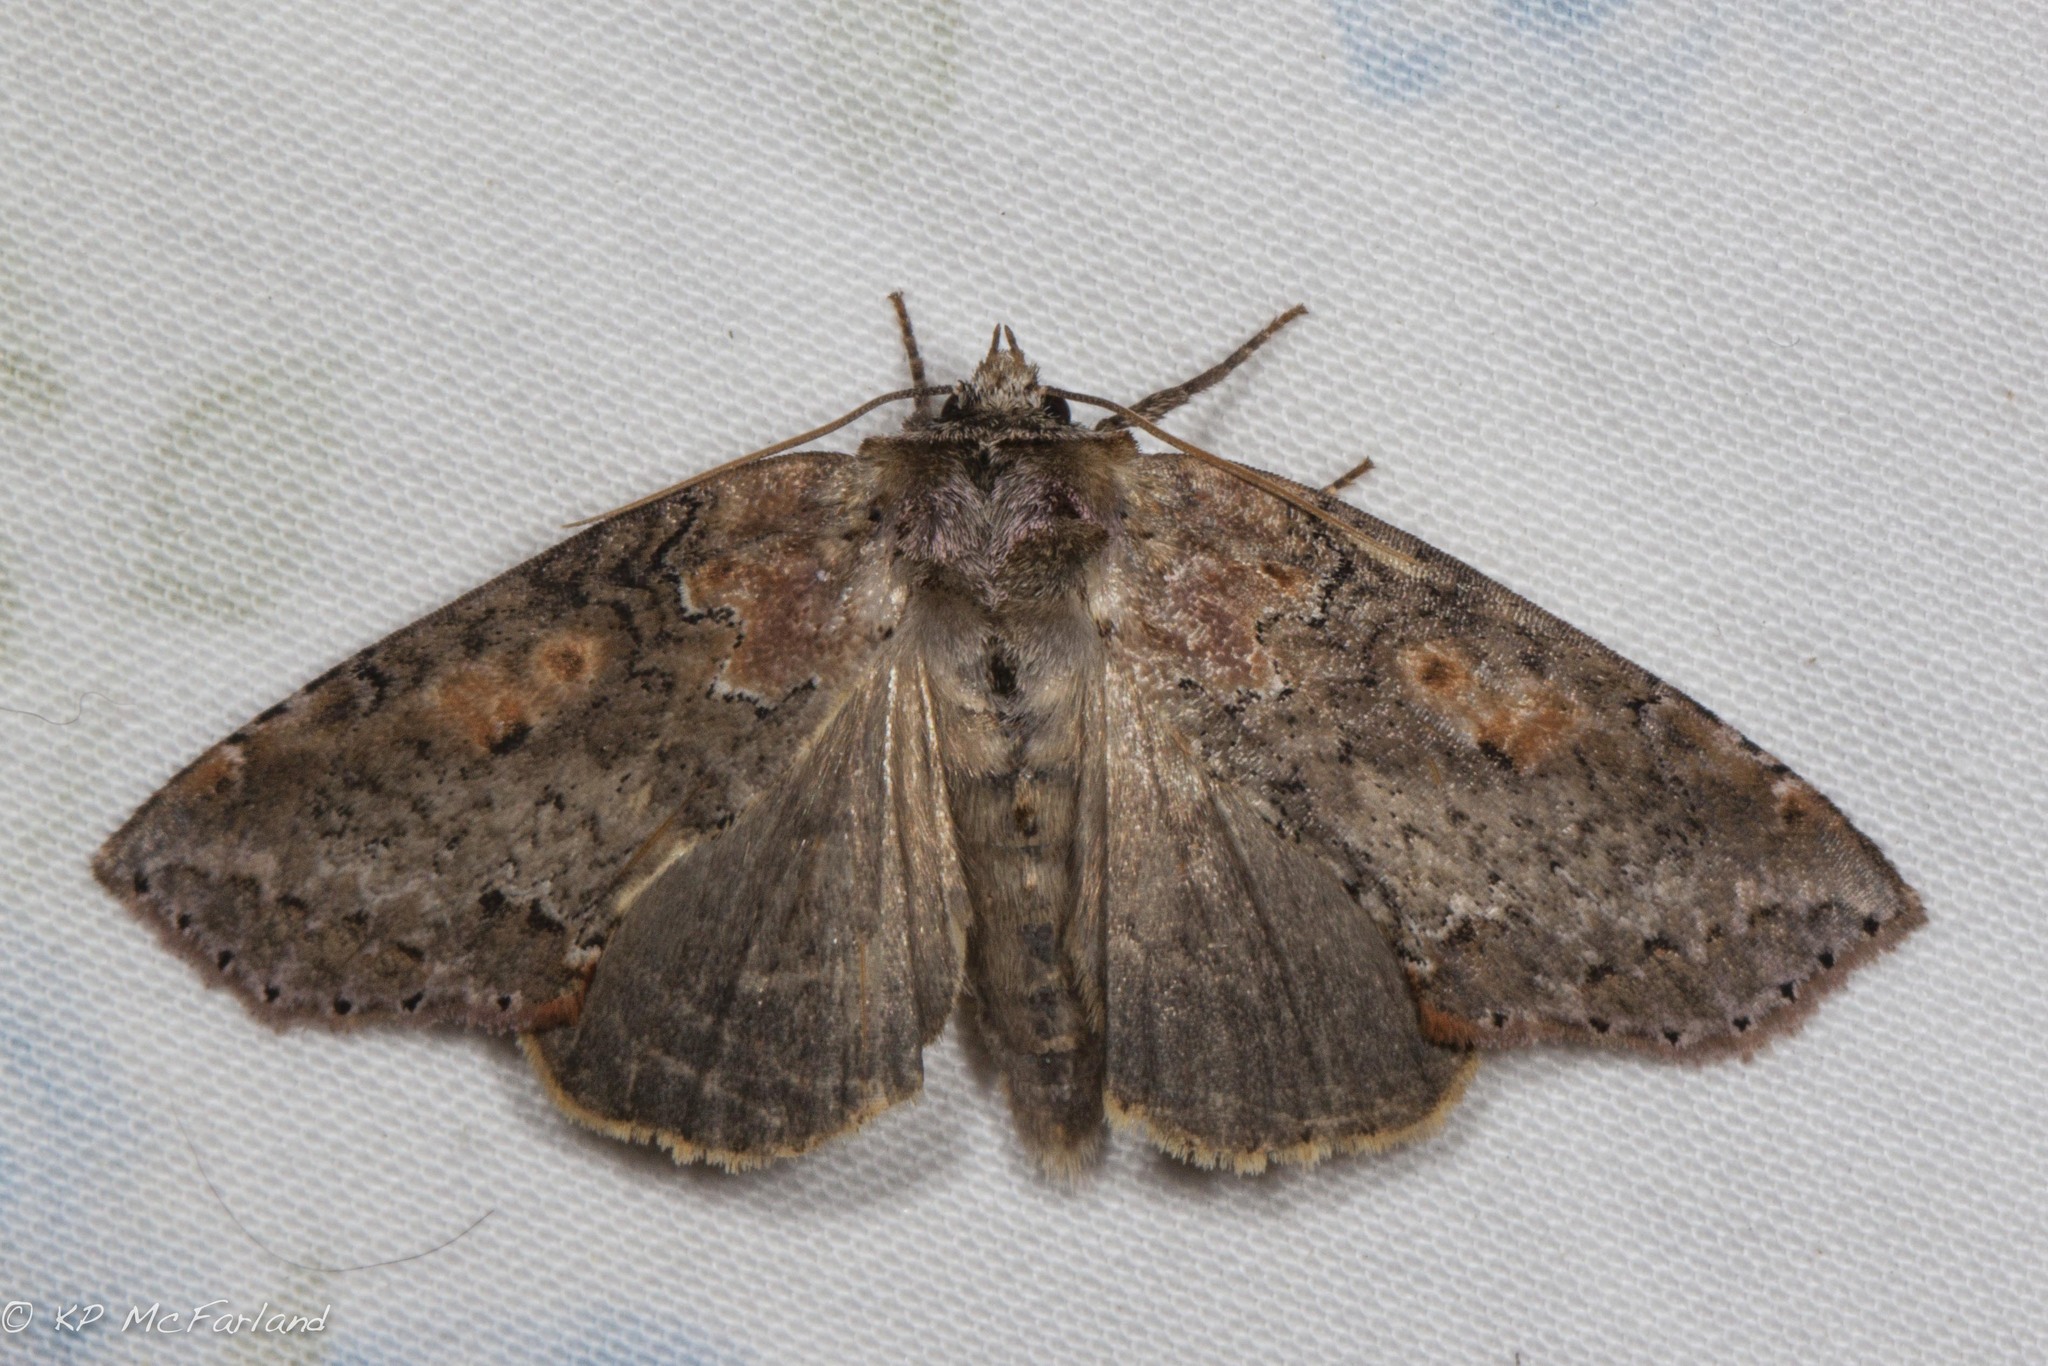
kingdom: Animalia
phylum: Arthropoda
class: Insecta
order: Lepidoptera
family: Drepanidae
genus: Pseudothyatira
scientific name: Pseudothyatira cymatophoroides
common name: Tufted thyatirid moth
